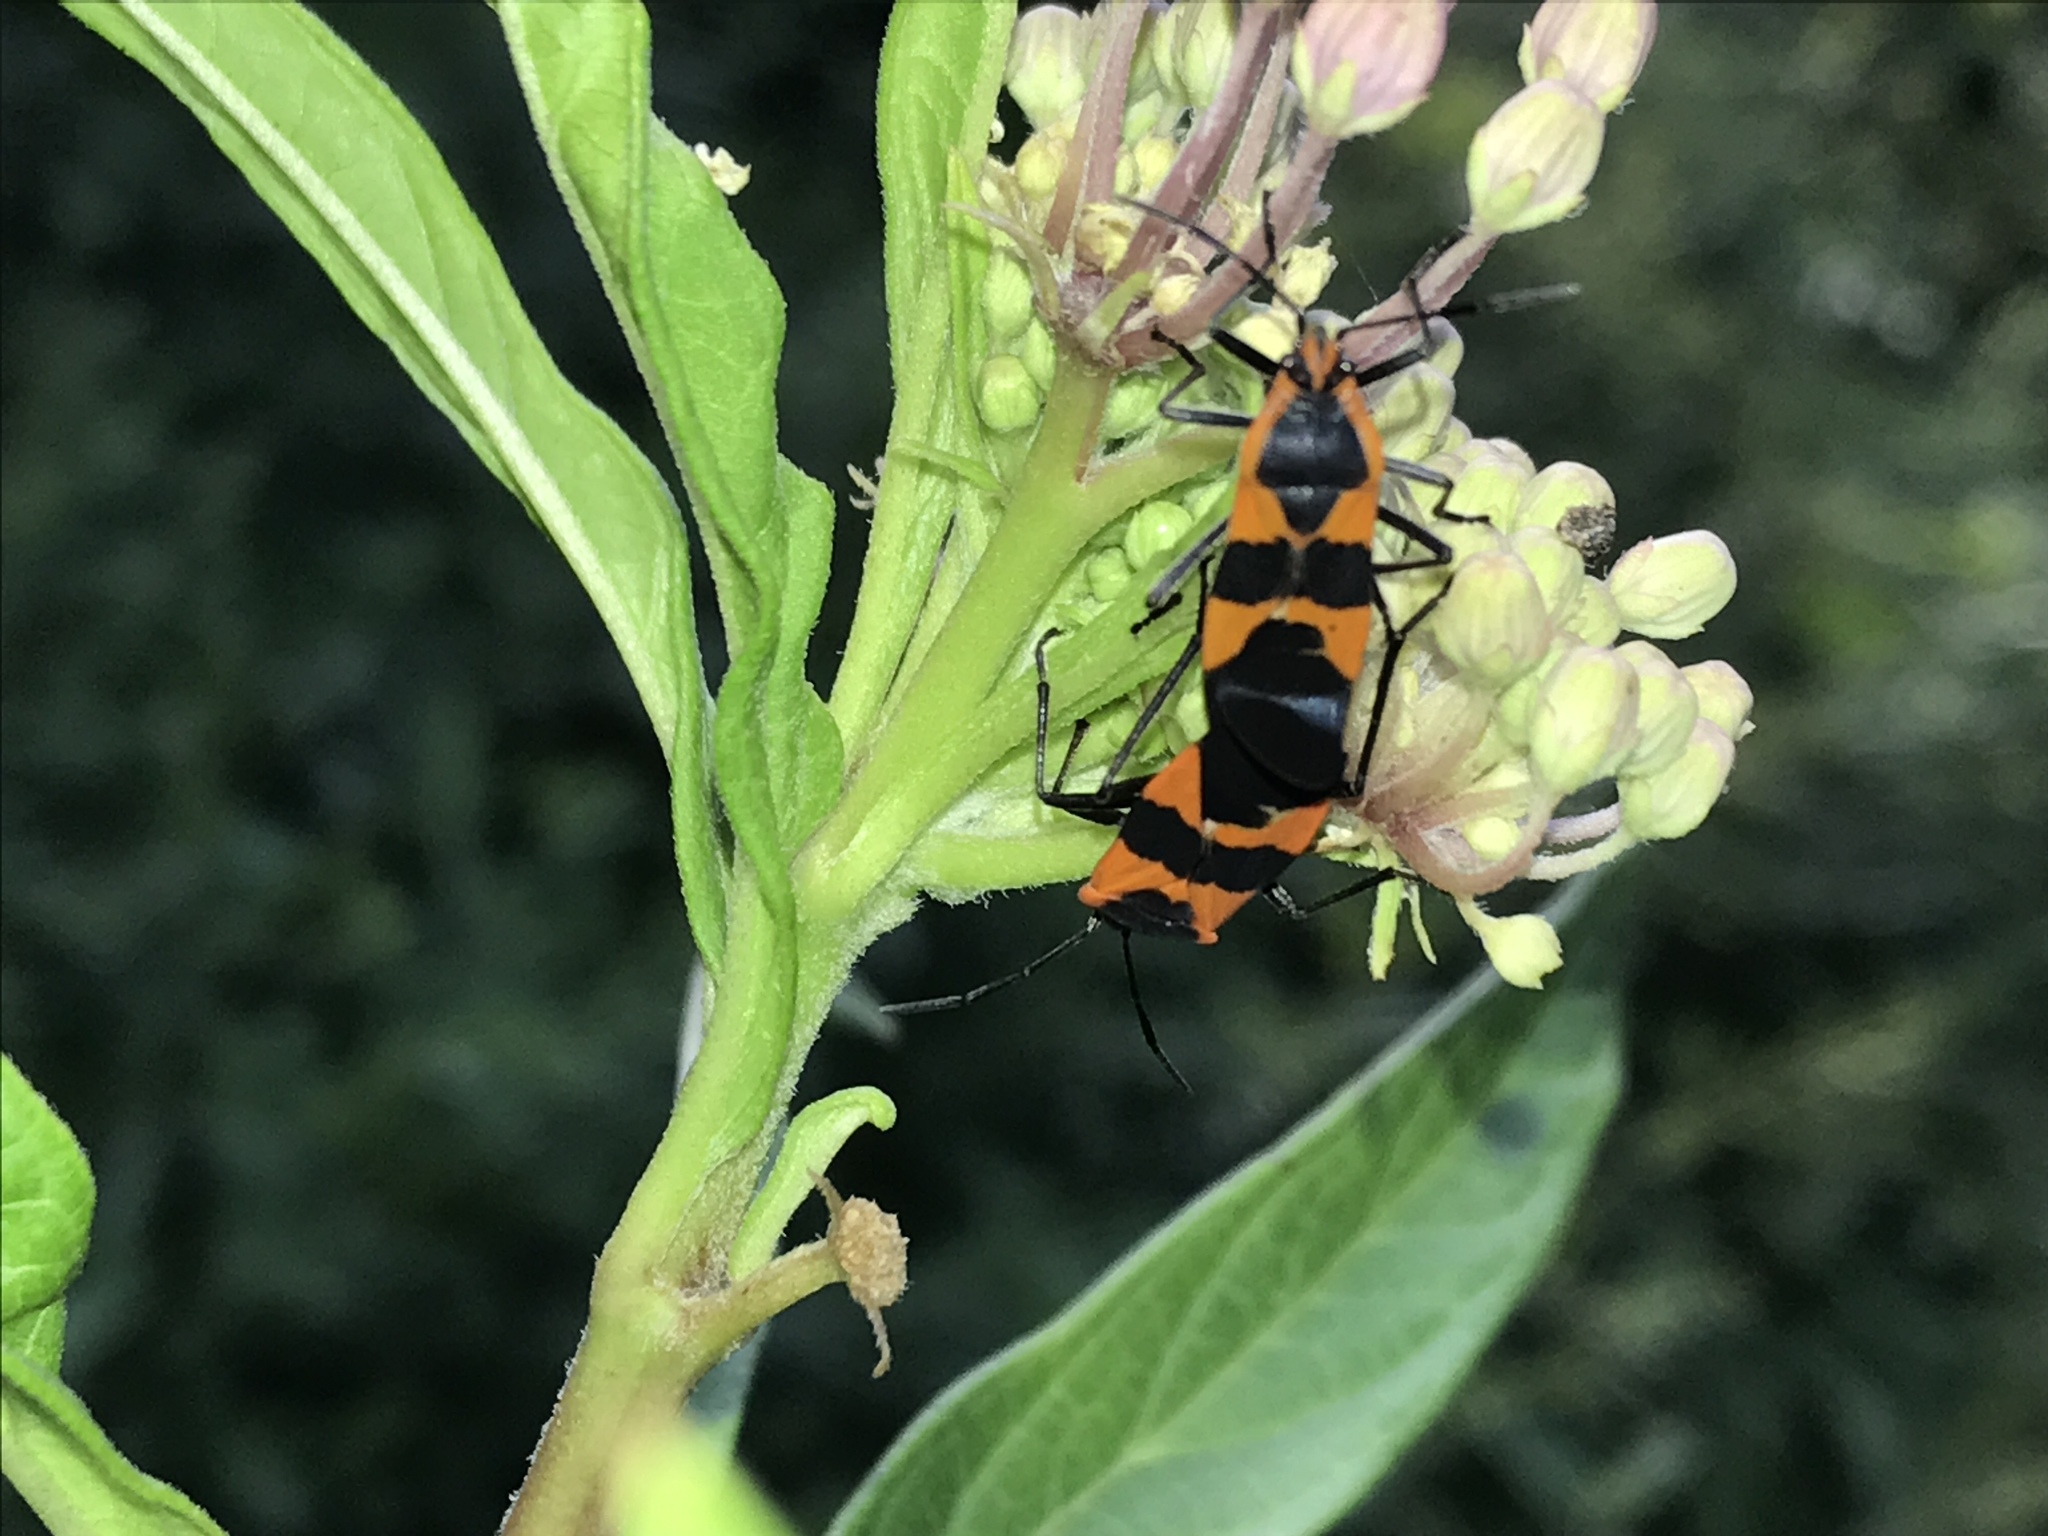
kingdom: Animalia
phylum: Arthropoda
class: Insecta
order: Hemiptera
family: Lygaeidae
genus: Oncopeltus
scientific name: Oncopeltus fasciatus
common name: Large milkweed bug
